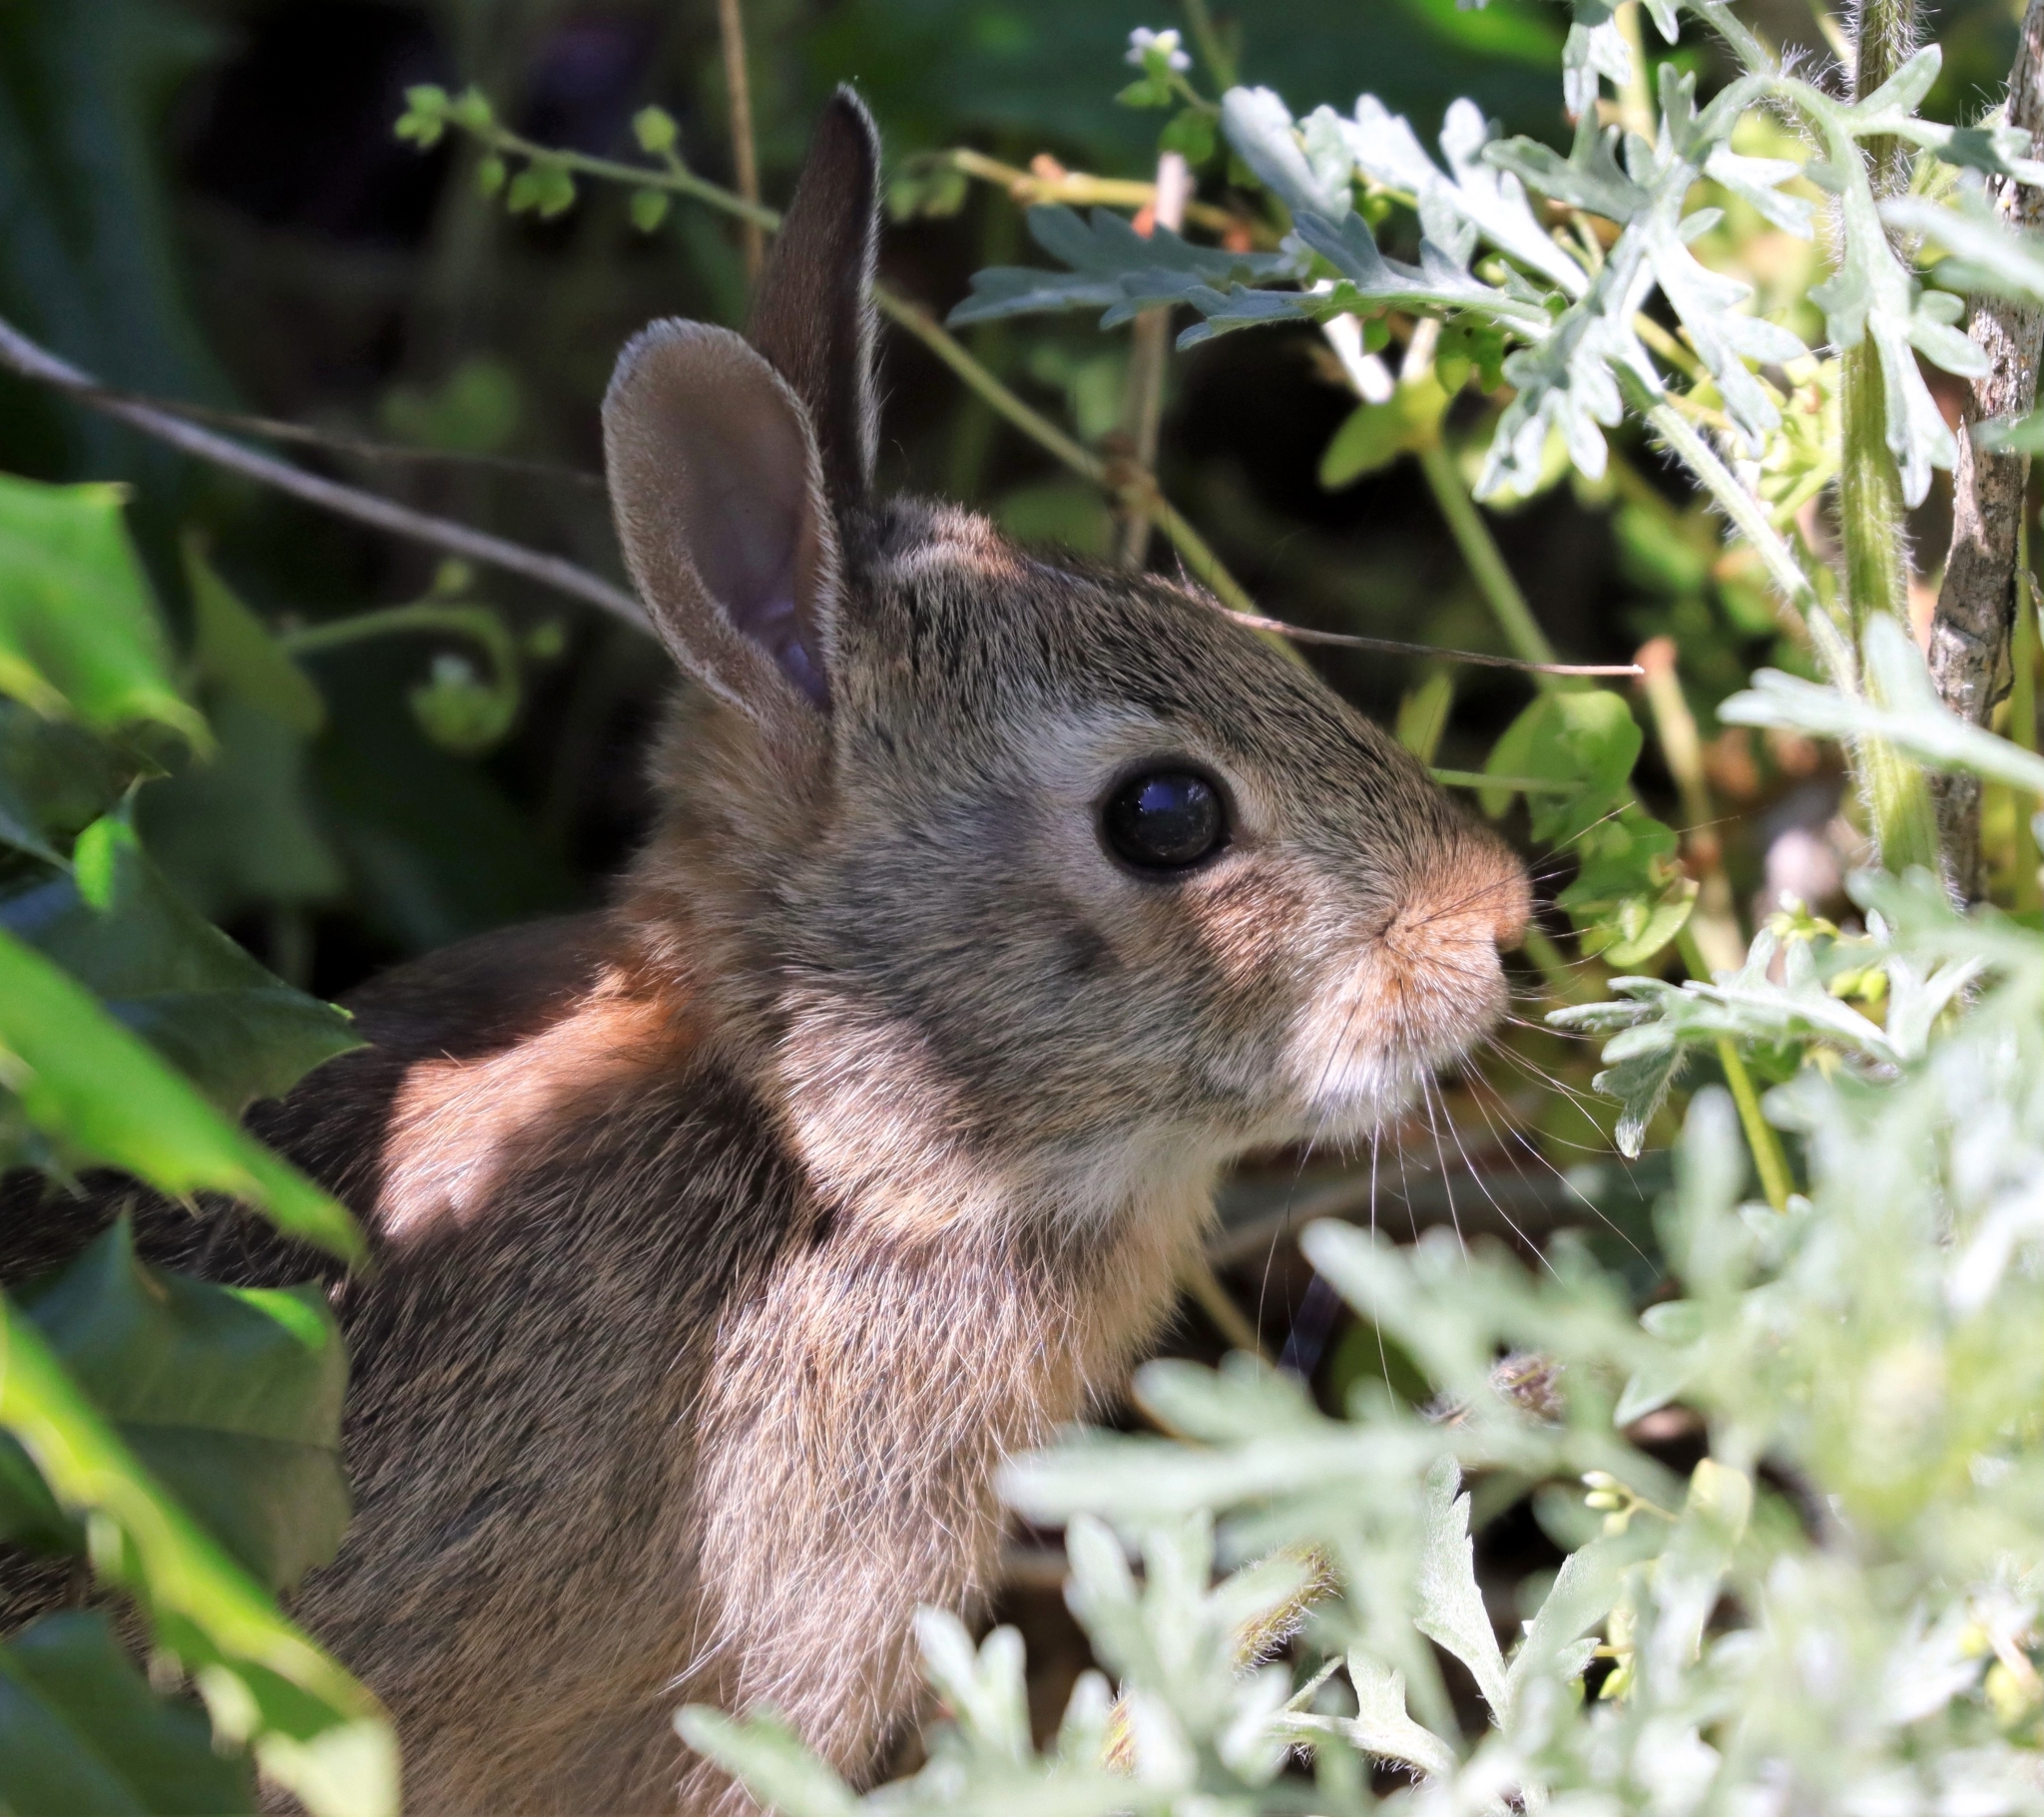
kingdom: Animalia
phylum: Chordata
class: Mammalia
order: Lagomorpha
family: Leporidae
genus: Sylvilagus
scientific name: Sylvilagus floridanus
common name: Eastern cottontail
